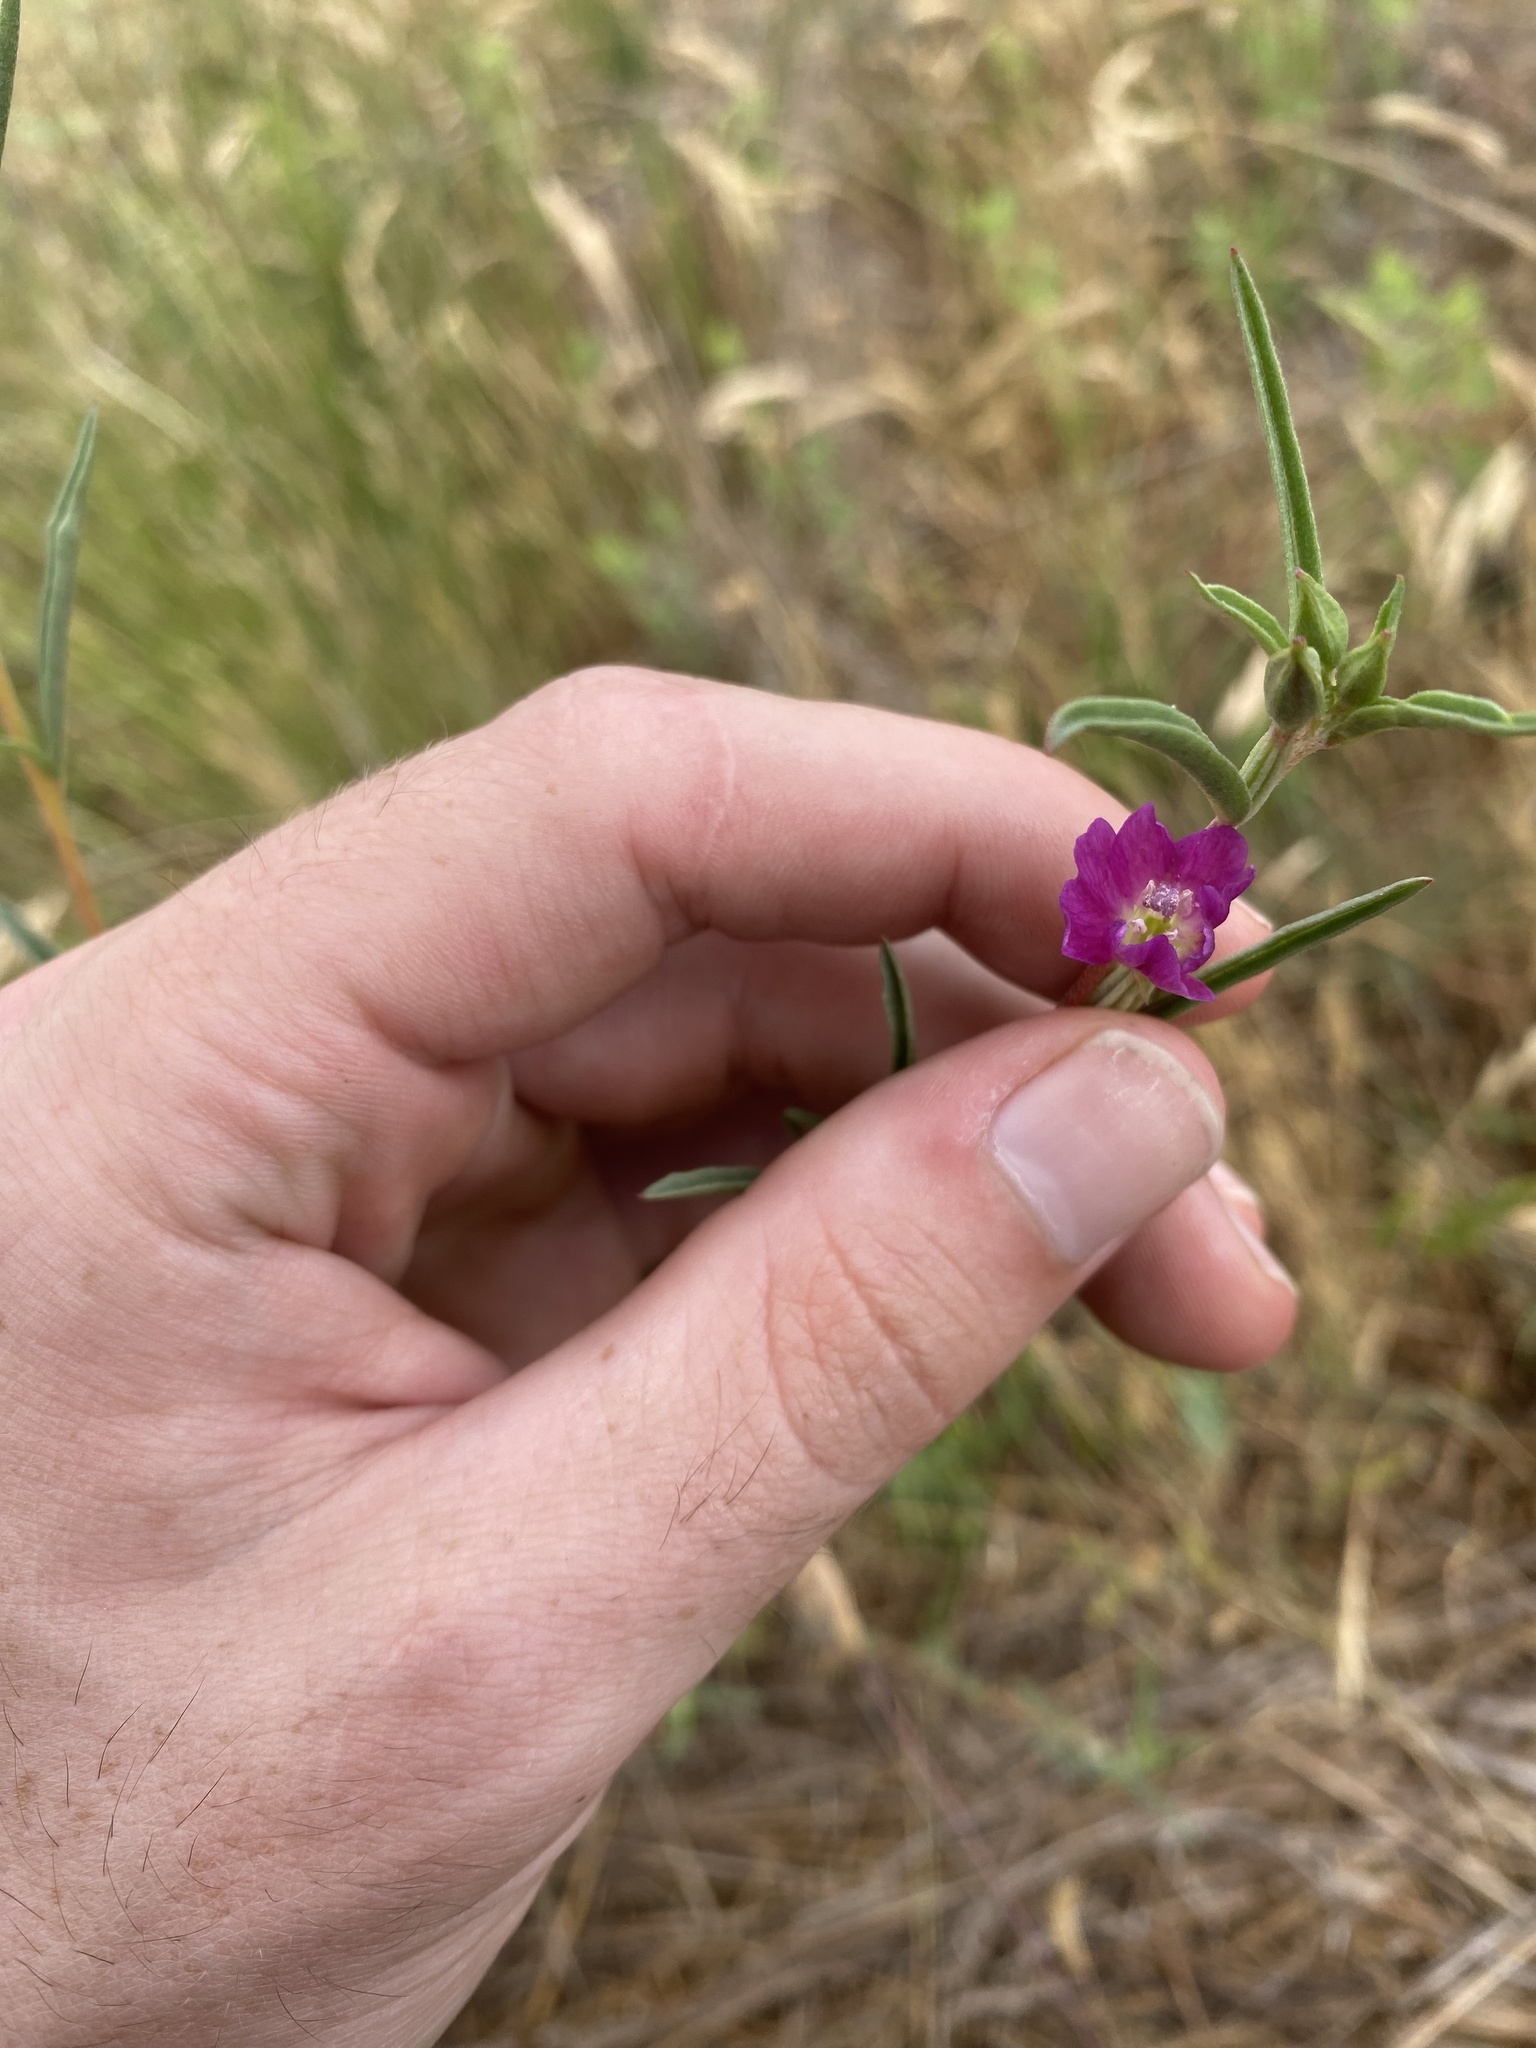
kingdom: Plantae
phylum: Tracheophyta
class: Magnoliopsida
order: Myrtales
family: Onagraceae
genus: Clarkia
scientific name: Clarkia purpurea
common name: Purple clarkia
